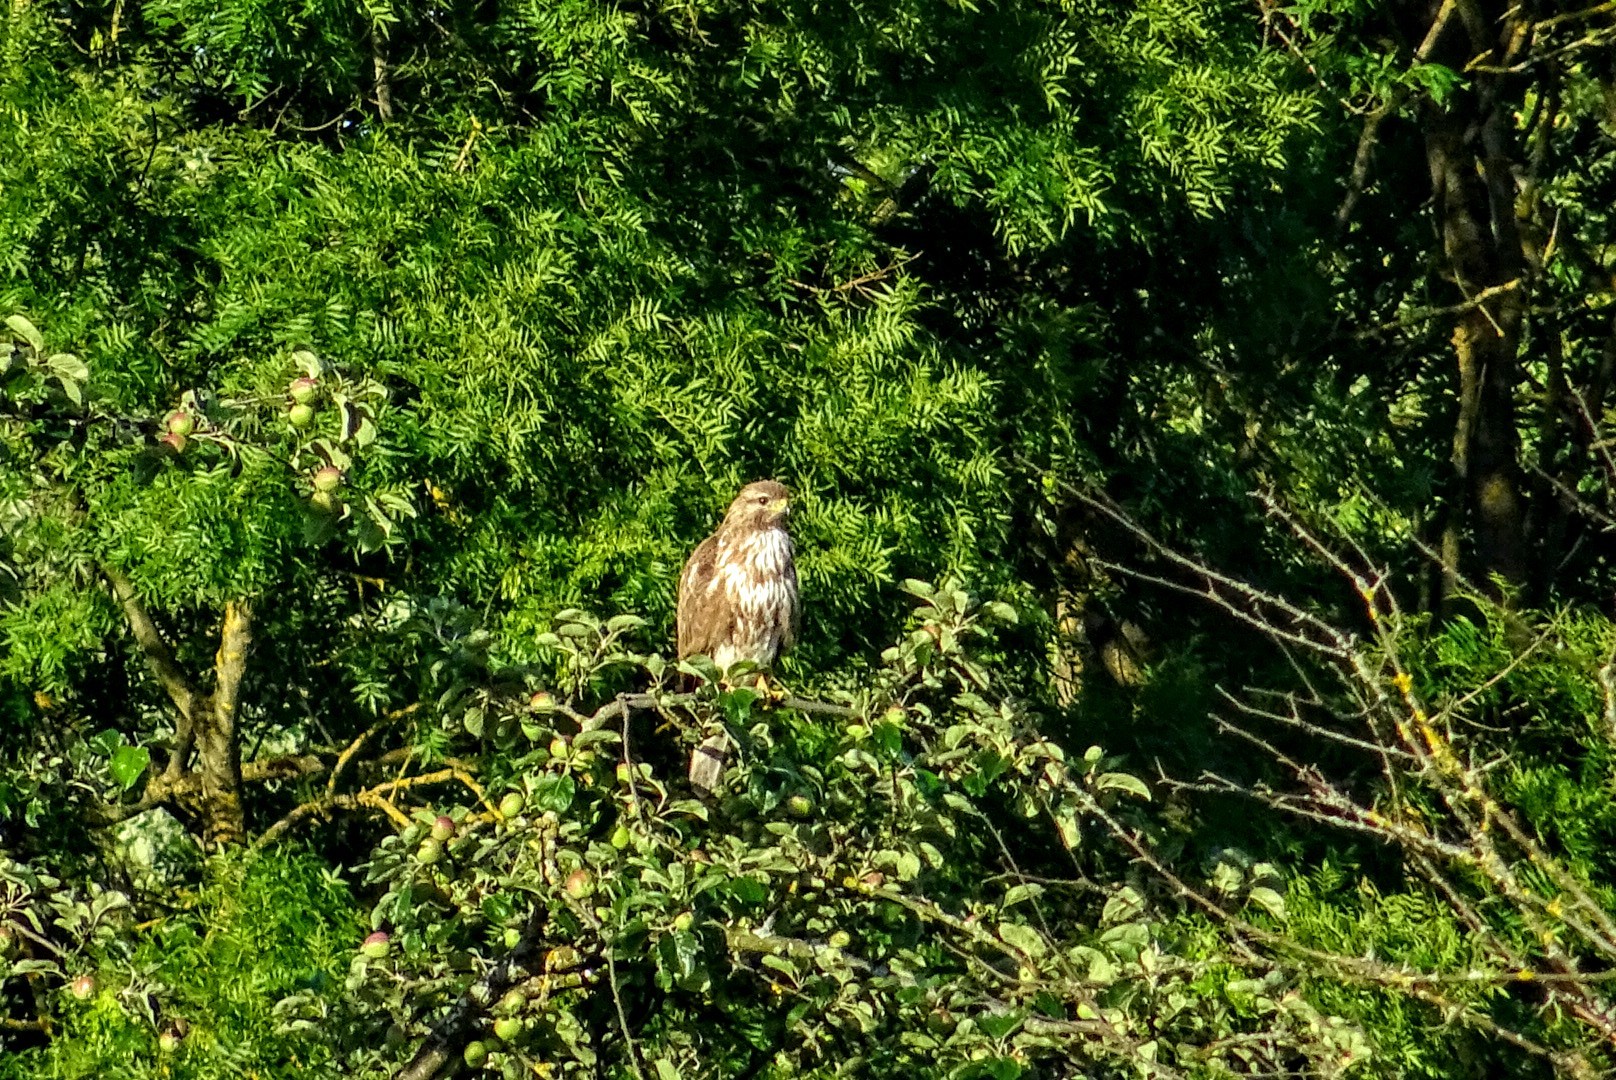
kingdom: Animalia
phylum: Chordata
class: Aves
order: Accipitriformes
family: Accipitridae
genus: Buteo
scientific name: Buteo buteo
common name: Common buzzard
